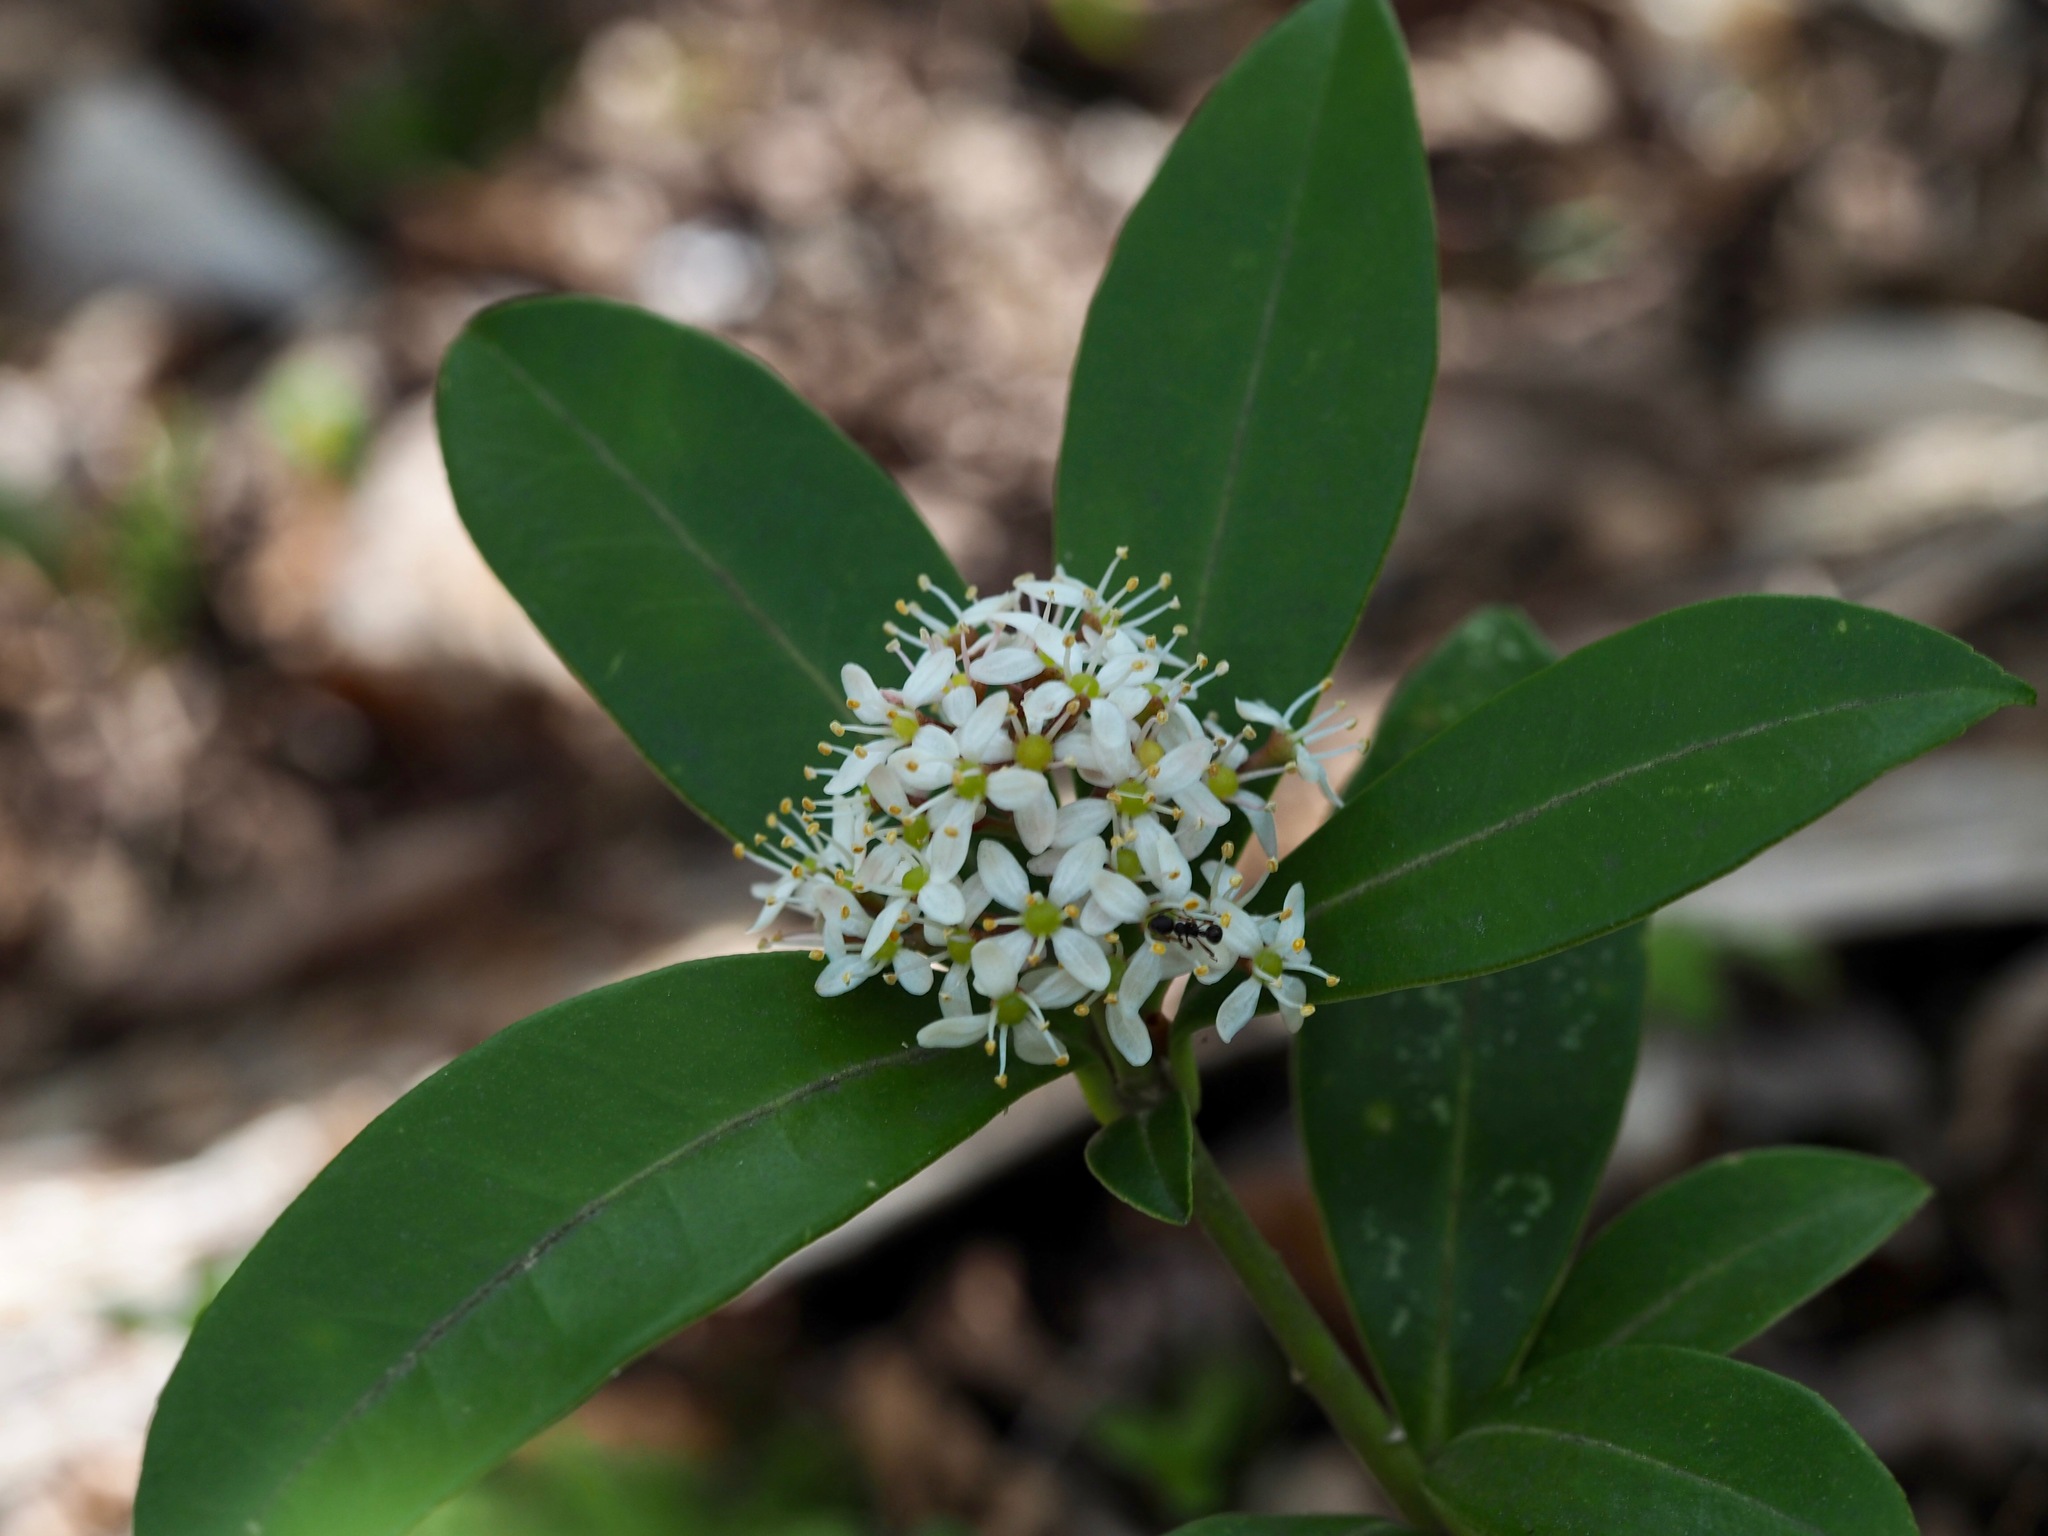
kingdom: Plantae
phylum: Tracheophyta
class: Magnoliopsida
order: Sapindales
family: Rutaceae
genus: Skimmia
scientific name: Skimmia japonica
